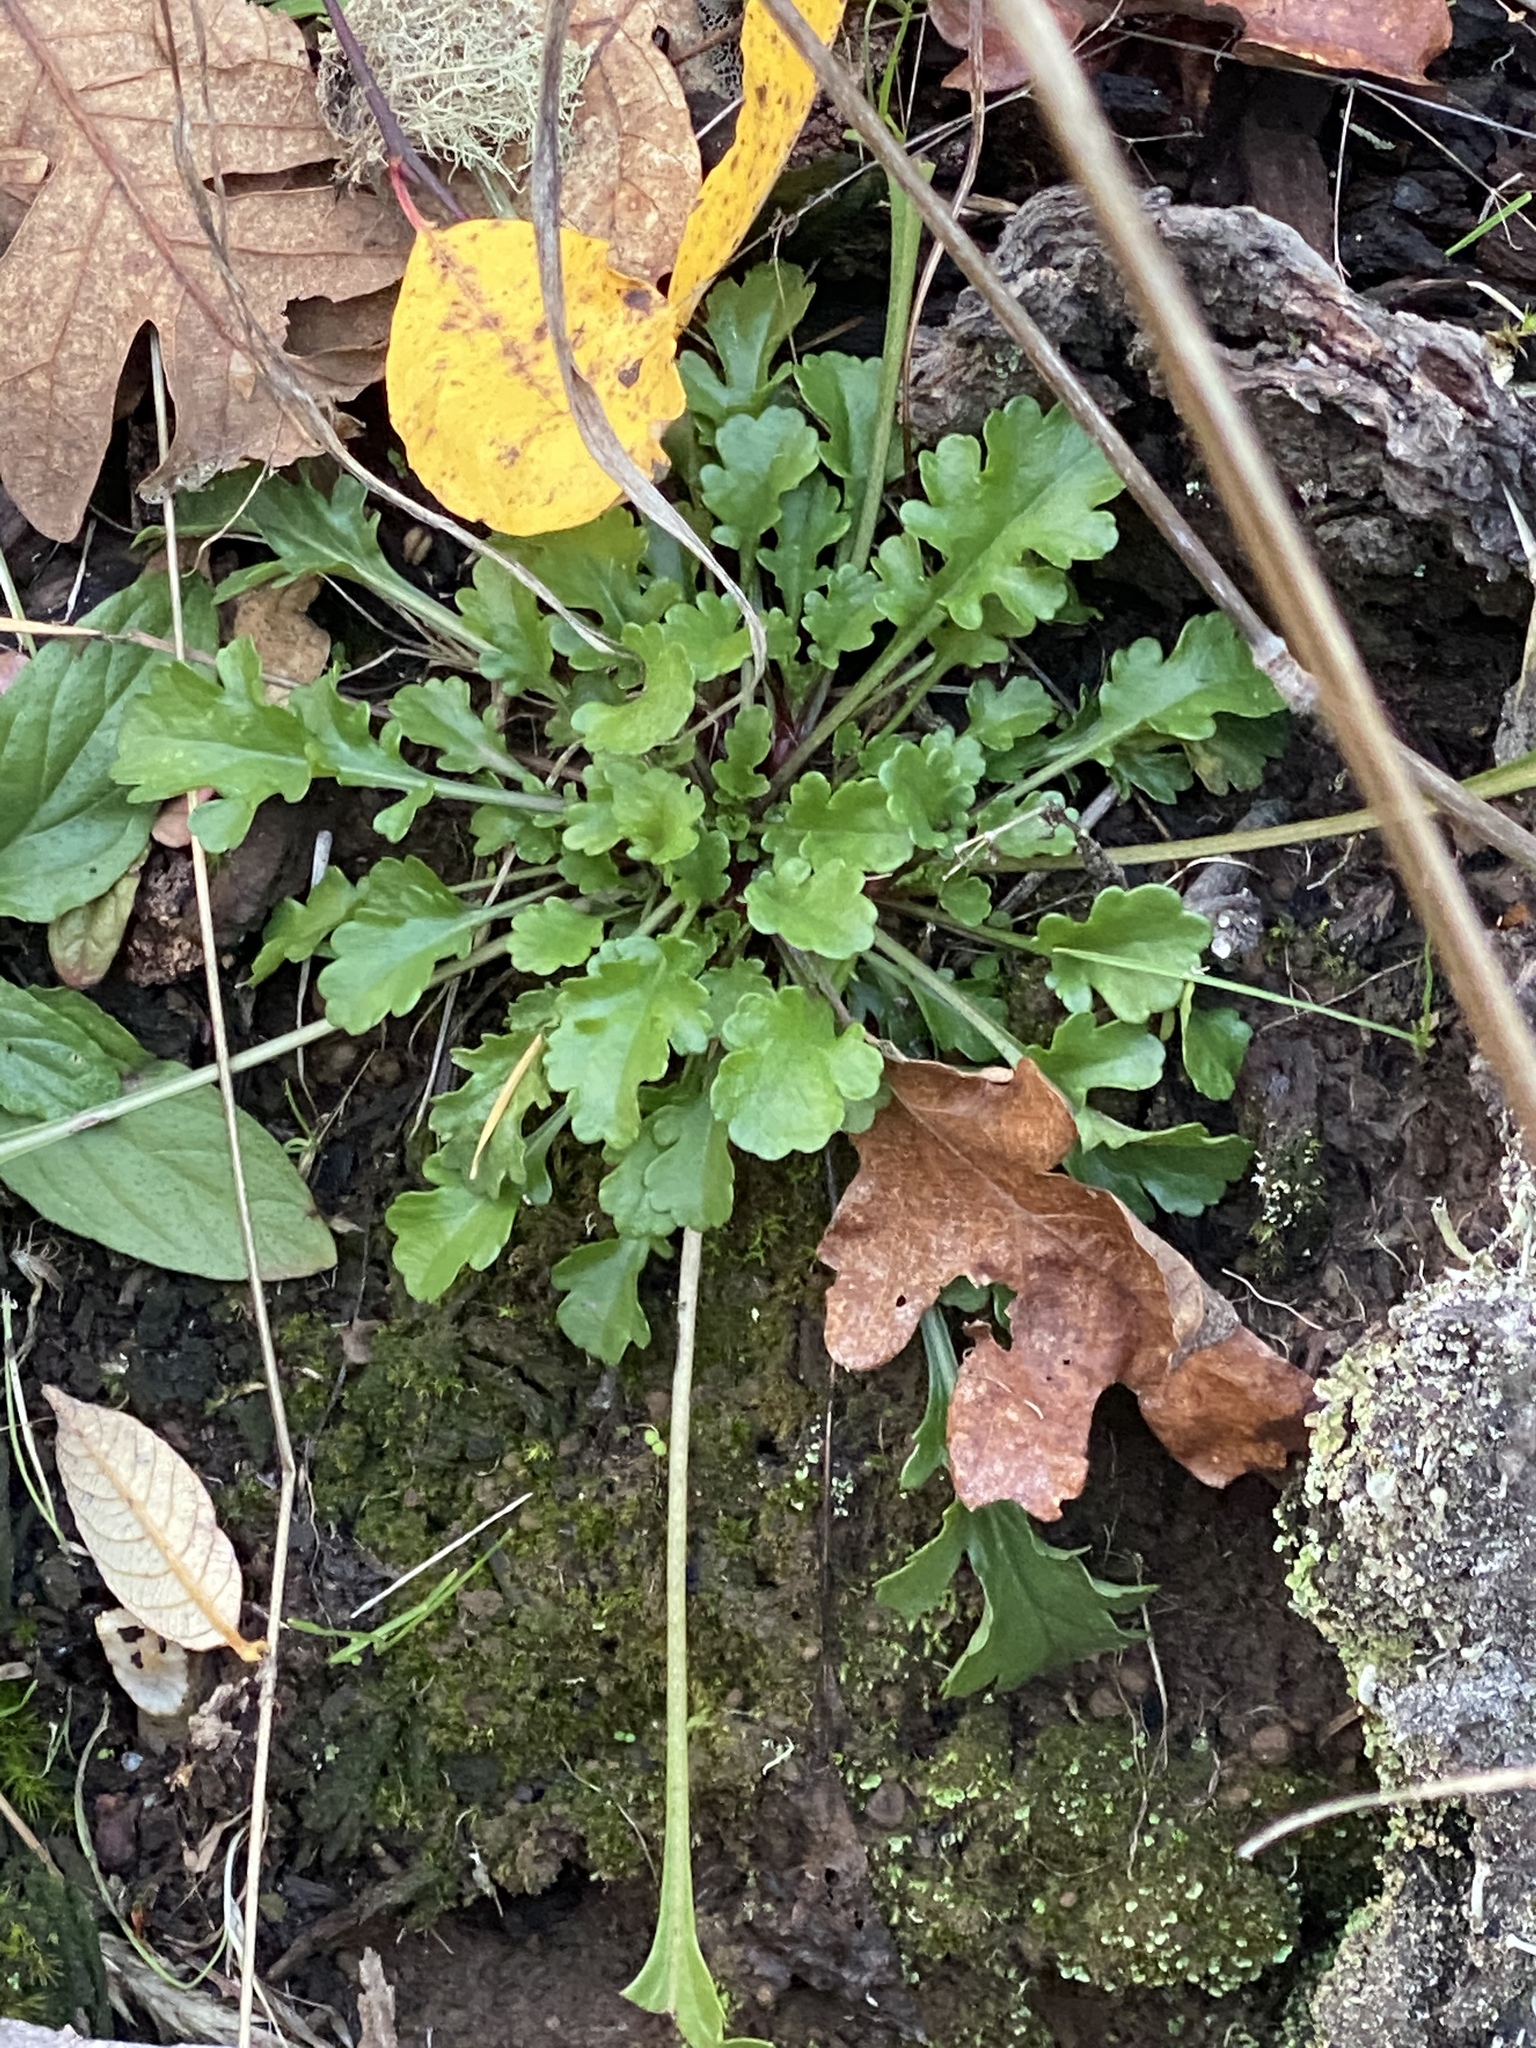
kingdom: Plantae
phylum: Tracheophyta
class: Magnoliopsida
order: Asterales
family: Asteraceae
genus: Leucanthemum
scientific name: Leucanthemum vulgare
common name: Oxeye daisy
